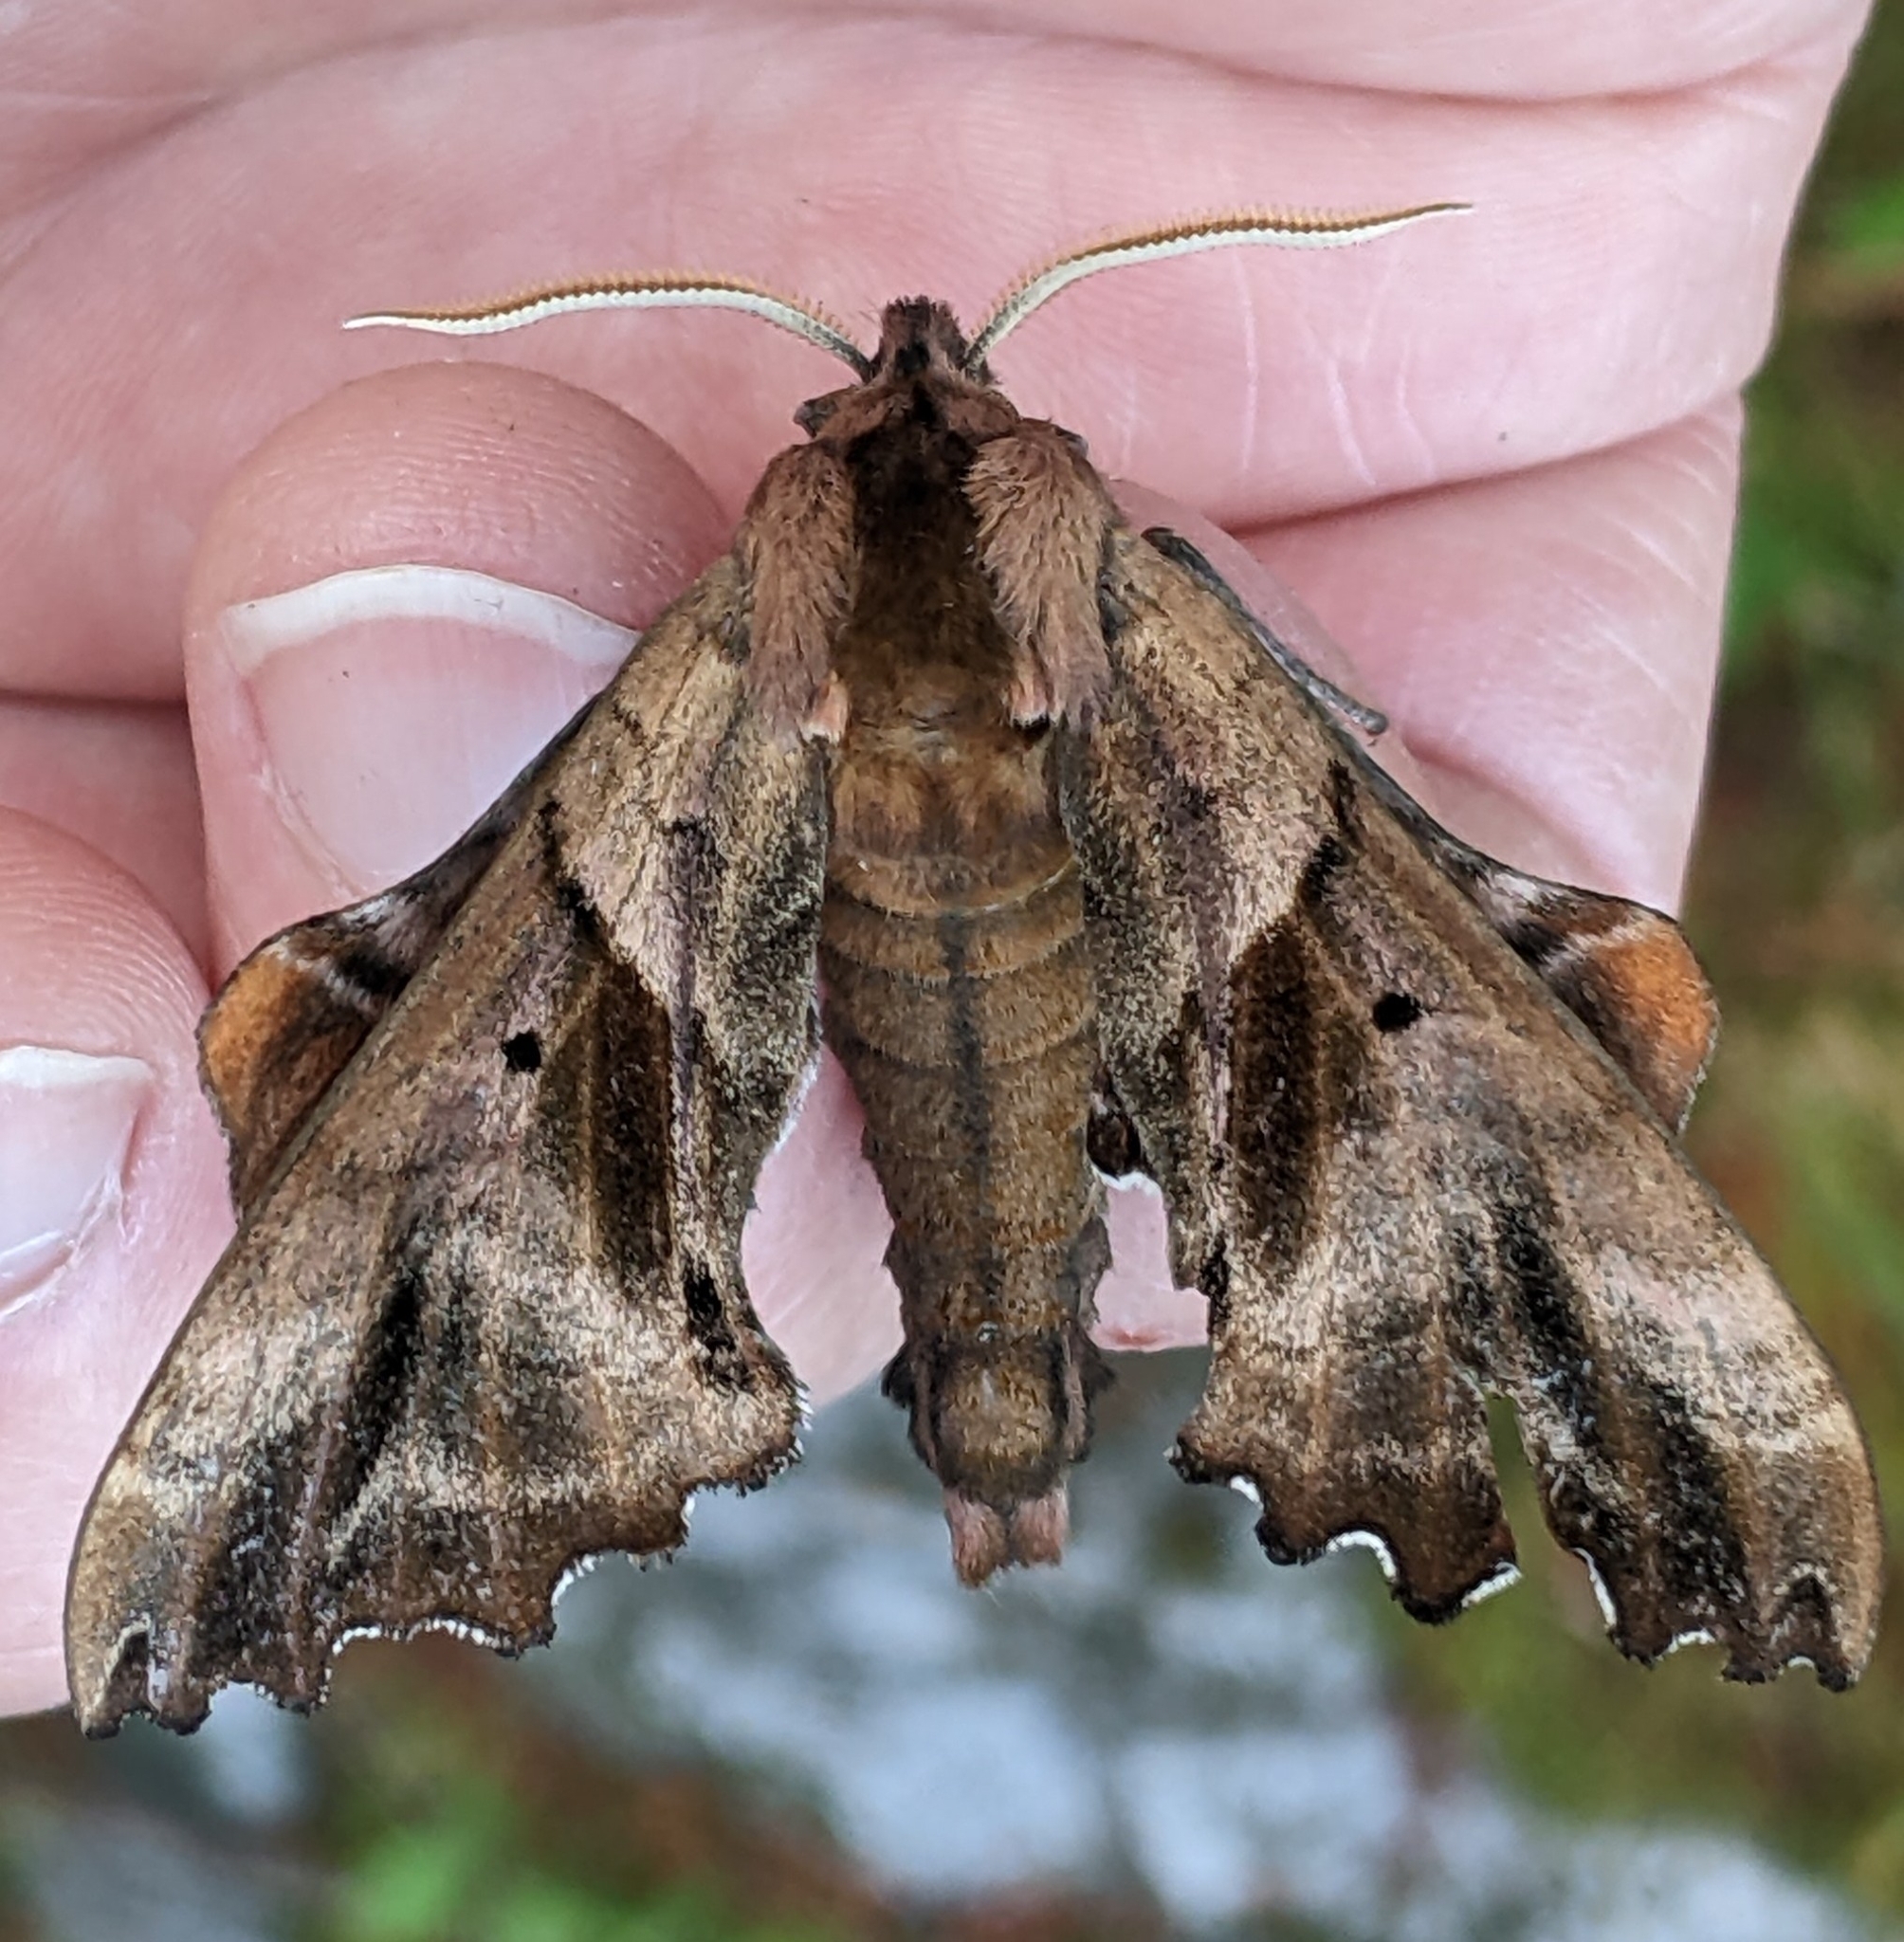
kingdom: Animalia
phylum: Arthropoda
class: Insecta
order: Lepidoptera
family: Sphingidae
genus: Paonias
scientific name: Paonias excaecata
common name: Blind-eyed sphinx
